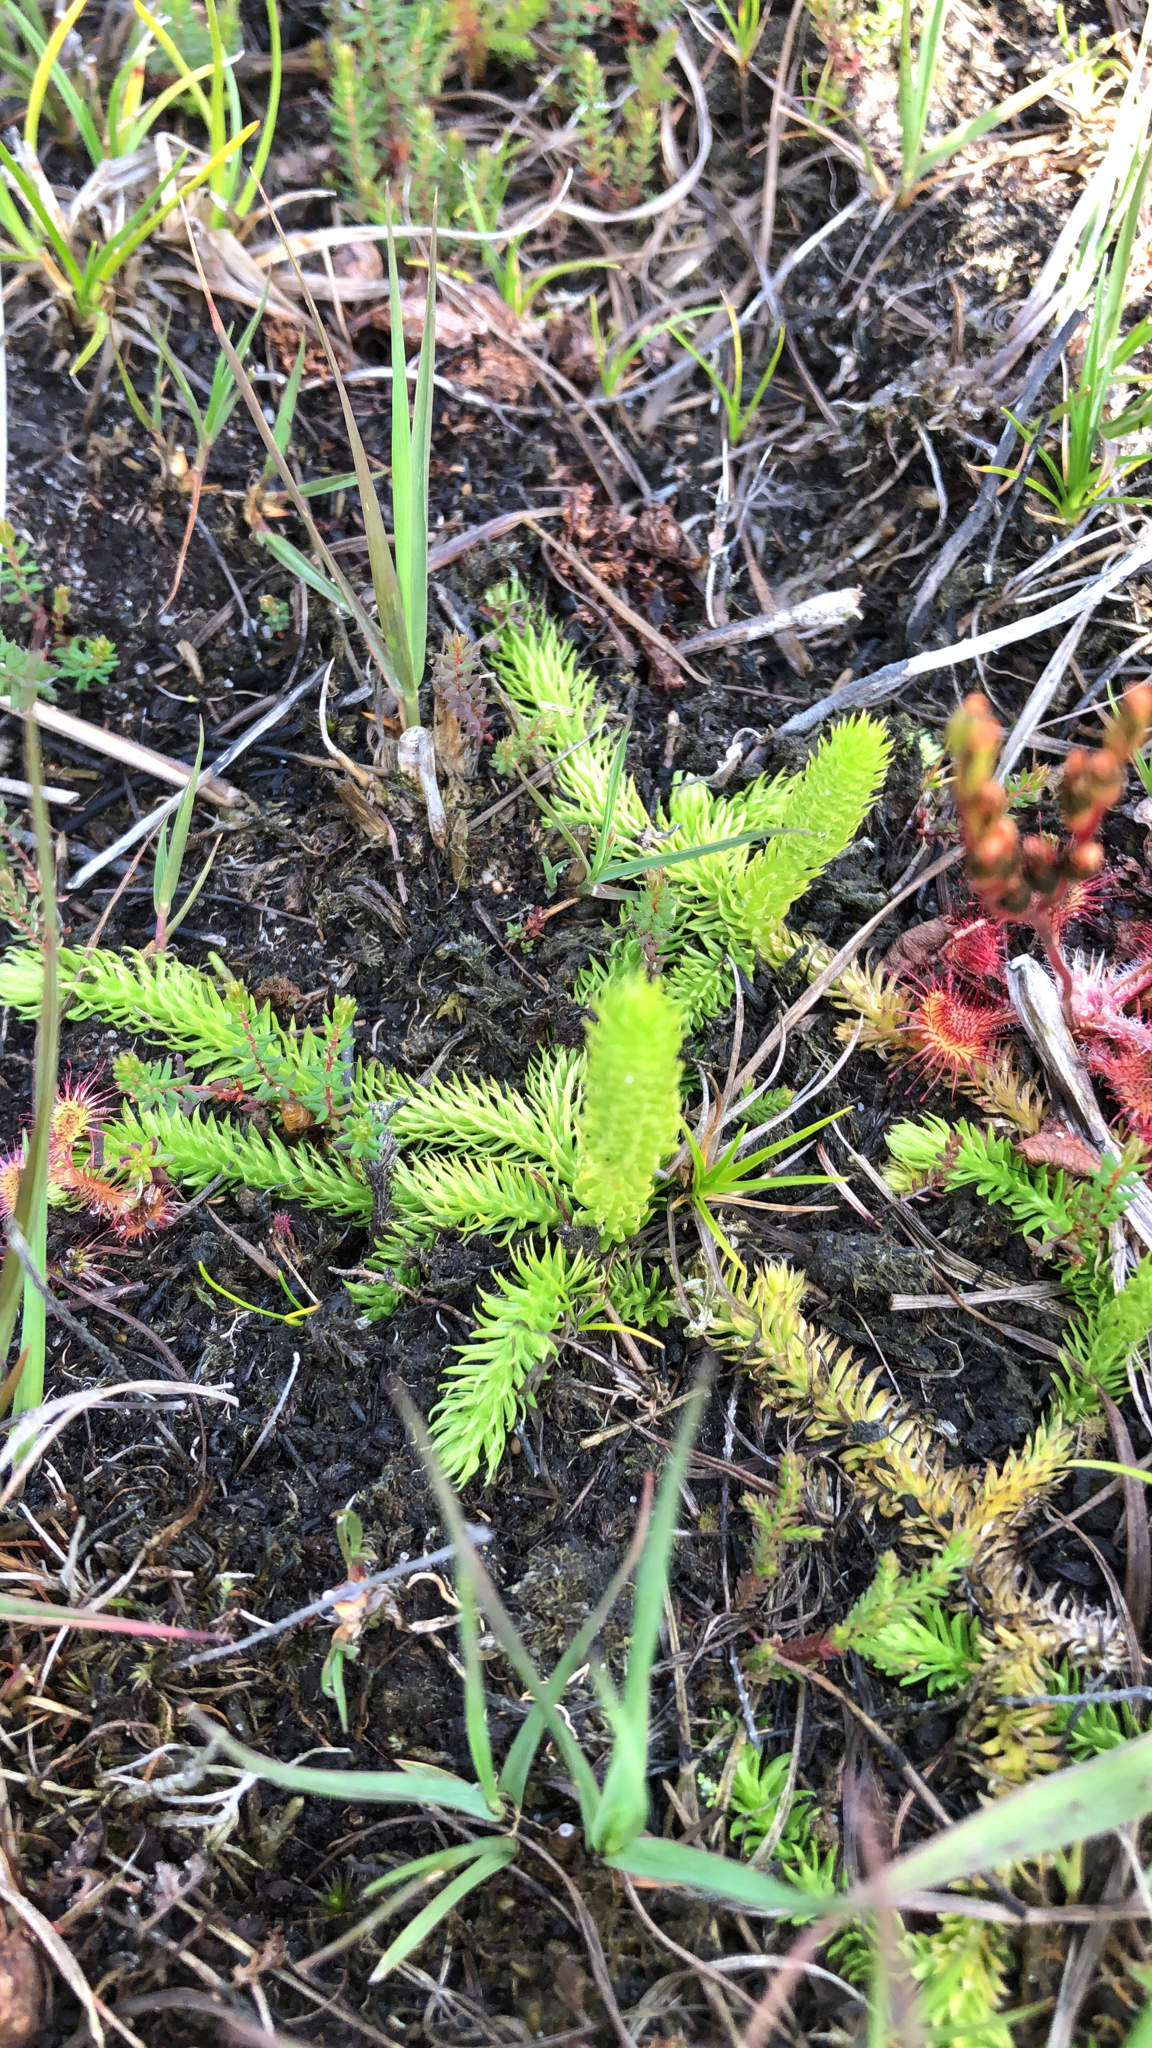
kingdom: Plantae
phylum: Tracheophyta
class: Lycopodiopsida
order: Lycopodiales
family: Lycopodiaceae
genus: Lycopodiella
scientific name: Lycopodiella inundata
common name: Marsh clubmoss
